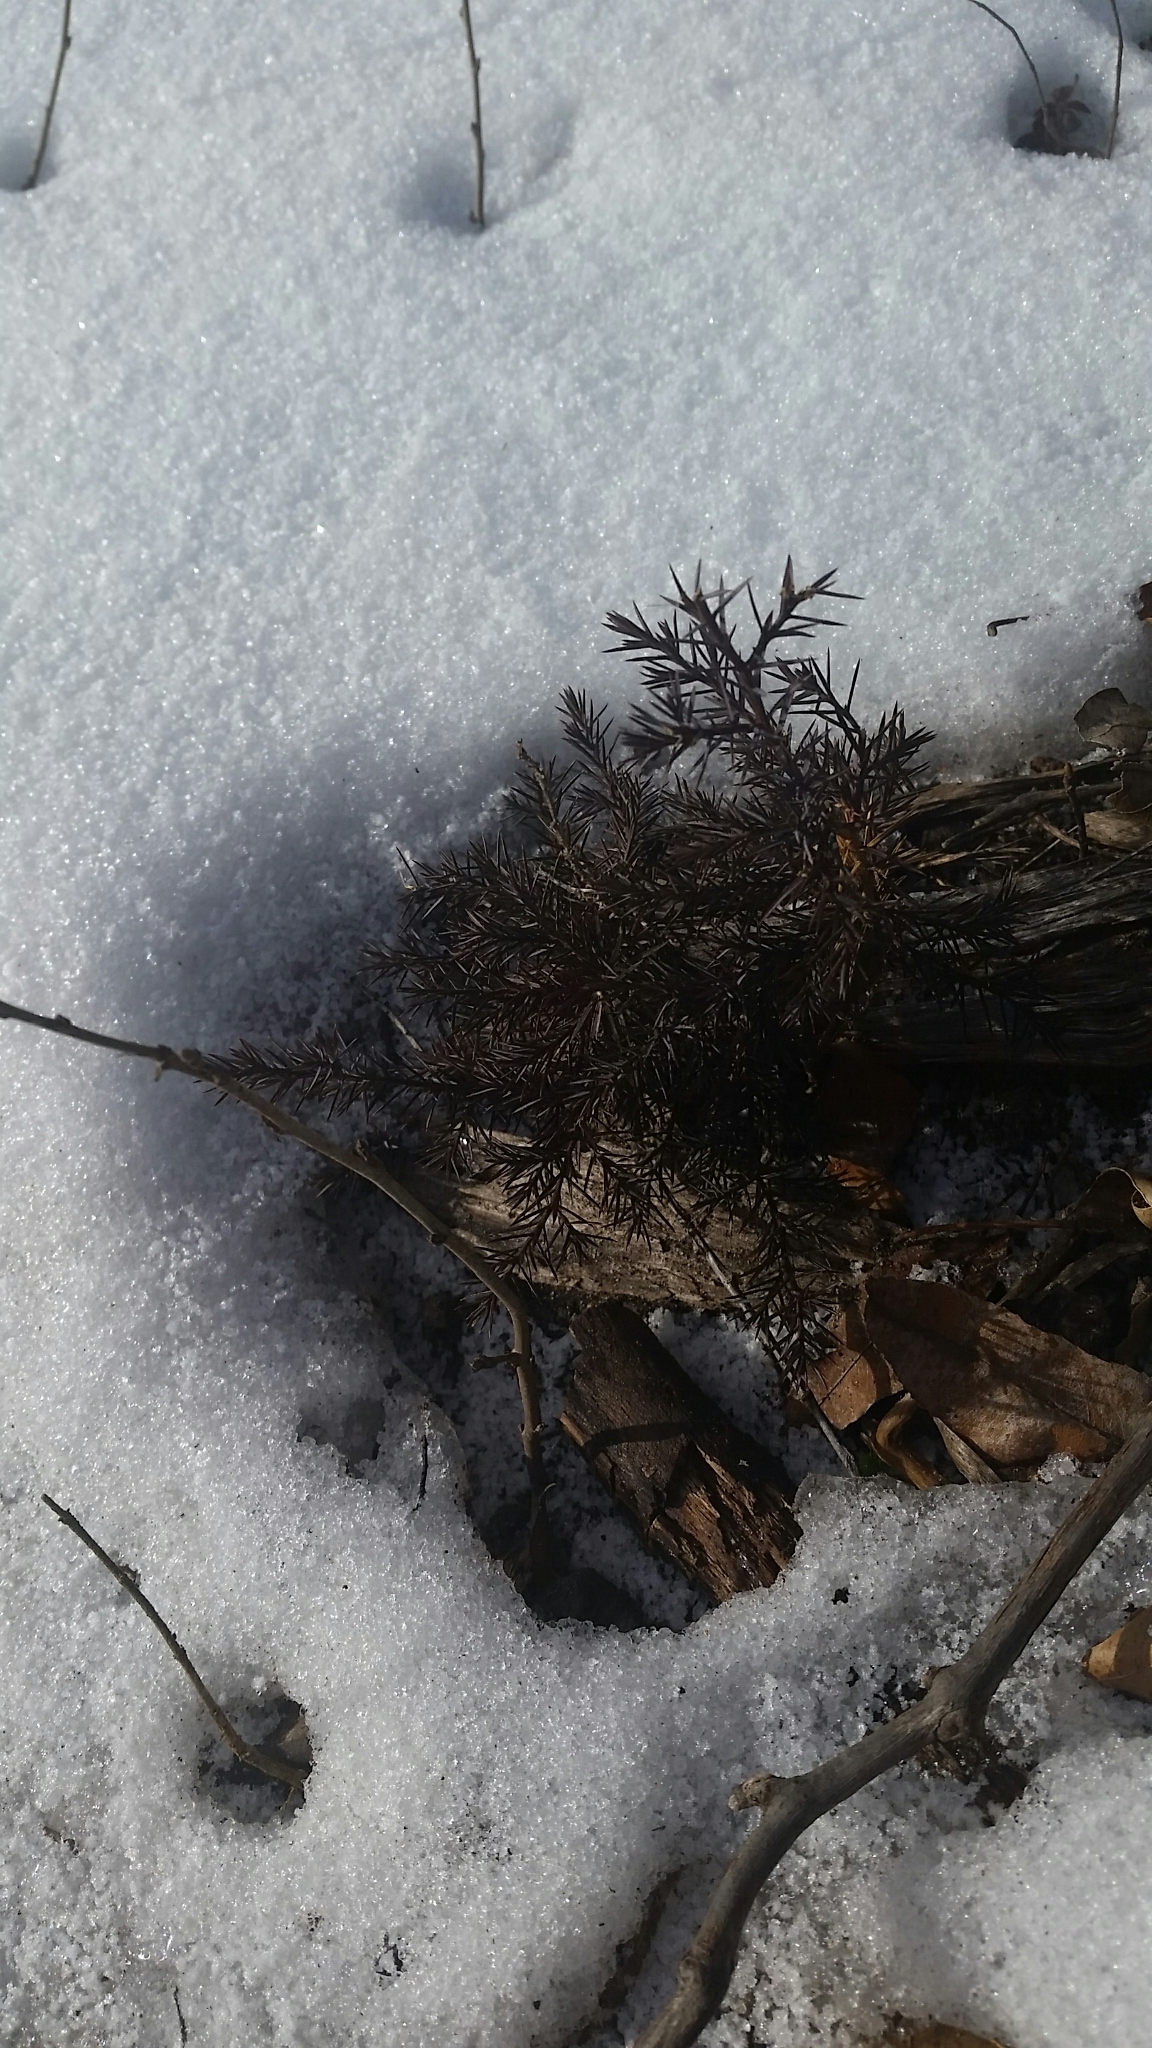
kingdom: Plantae
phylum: Tracheophyta
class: Pinopsida
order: Pinales
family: Cupressaceae
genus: Juniperus
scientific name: Juniperus virginiana
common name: Red juniper
